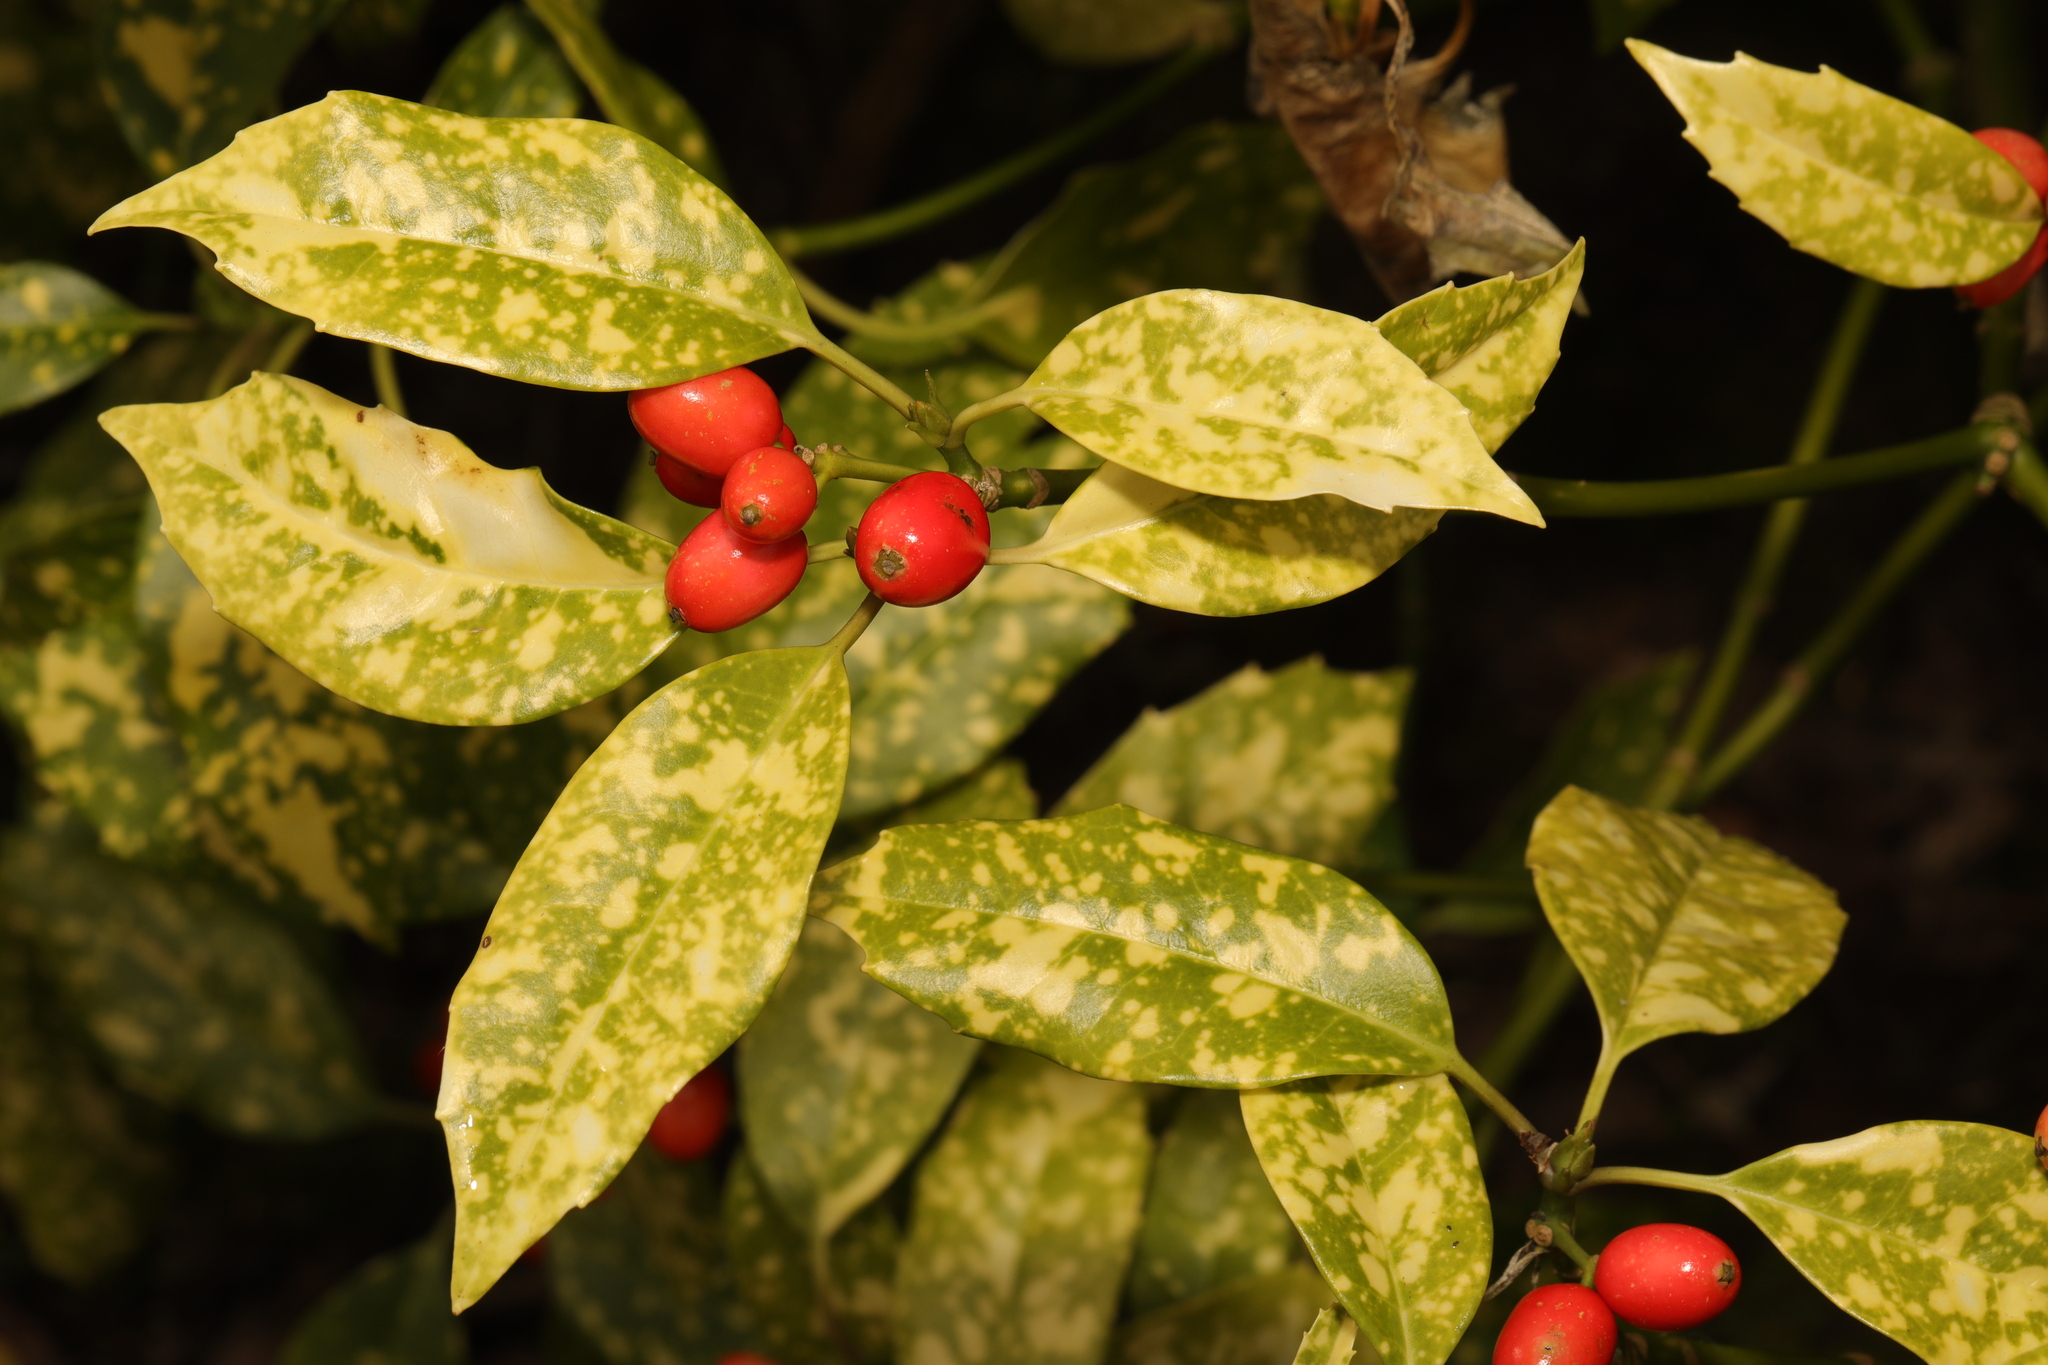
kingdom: Plantae
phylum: Tracheophyta
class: Magnoliopsida
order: Garryales
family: Garryaceae
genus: Aucuba
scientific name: Aucuba japonica
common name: Spotted-laurel
